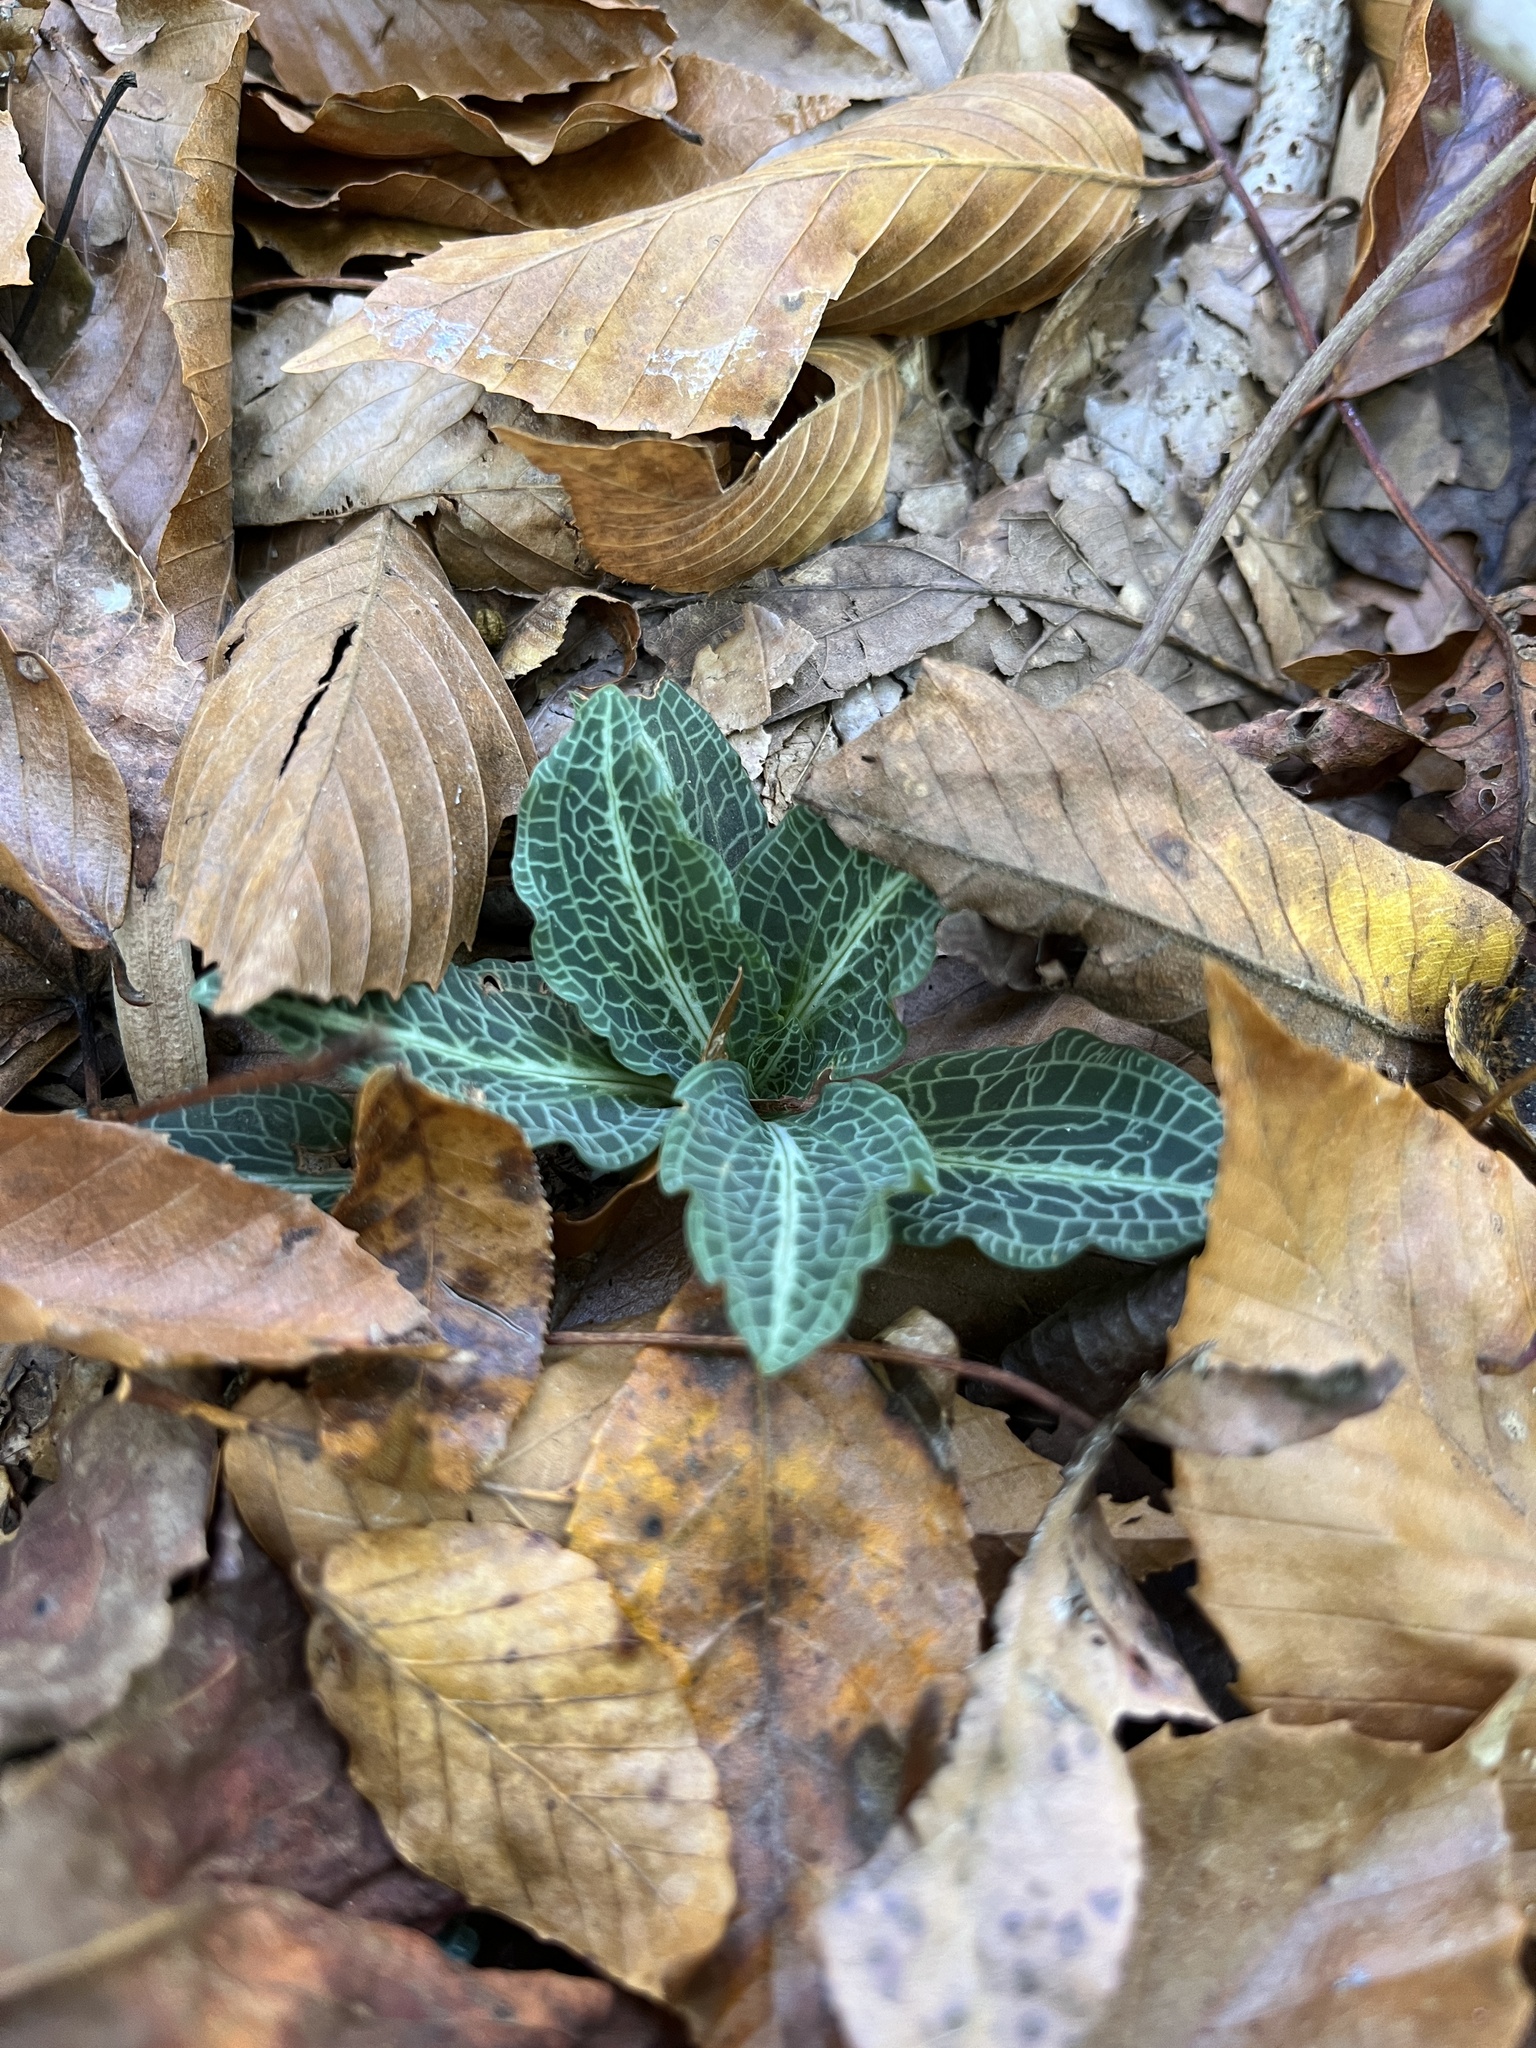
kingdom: Plantae
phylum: Tracheophyta
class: Liliopsida
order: Asparagales
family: Orchidaceae
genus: Goodyera
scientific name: Goodyera pubescens
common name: Downy rattlesnake-plantain
